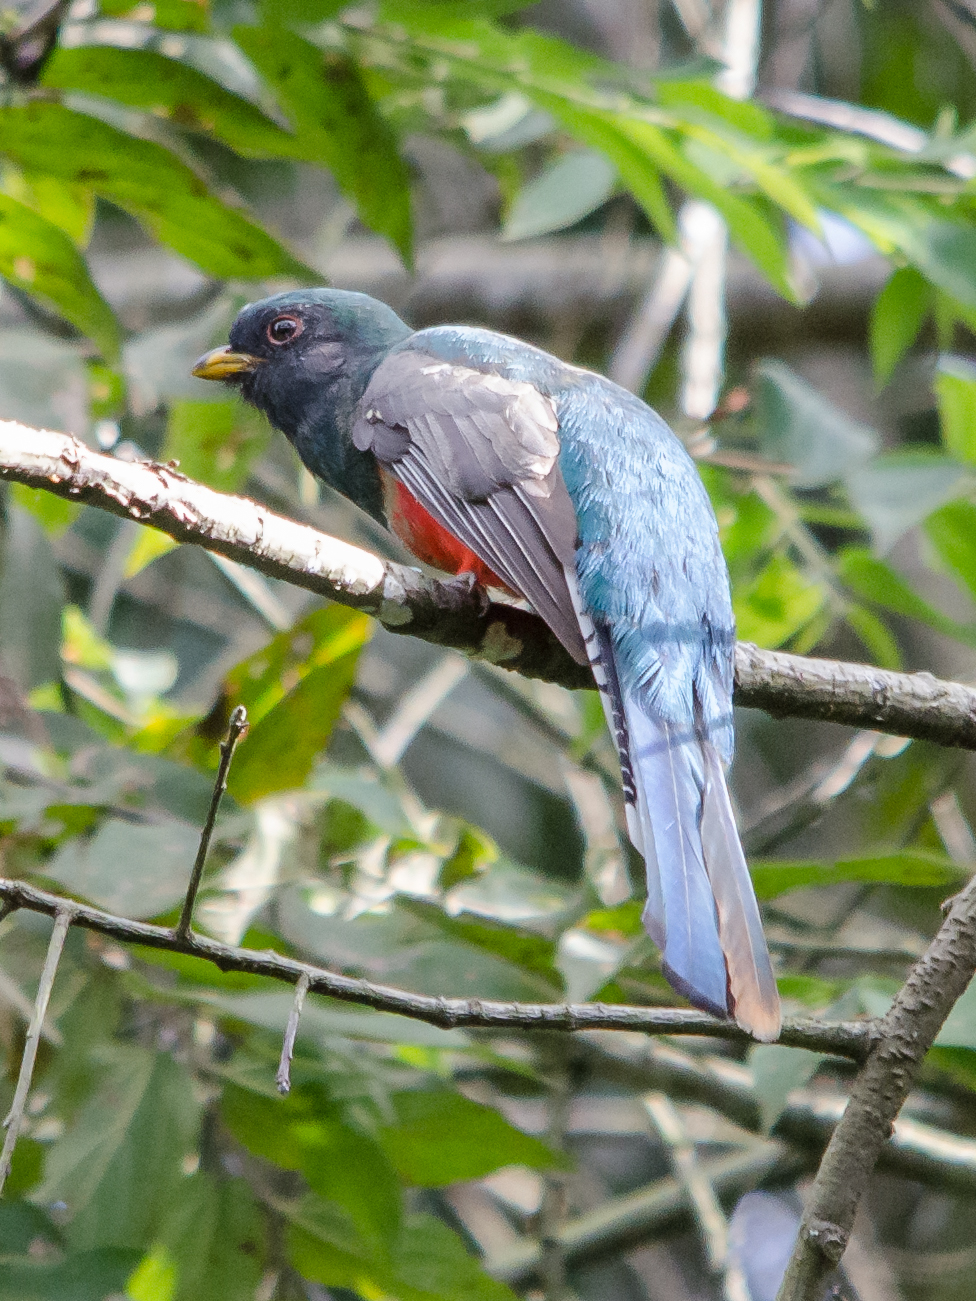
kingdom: Animalia
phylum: Chordata
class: Aves
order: Trogoniformes
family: Trogonidae
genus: Trogon
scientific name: Trogon collaris
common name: Collared trogon
